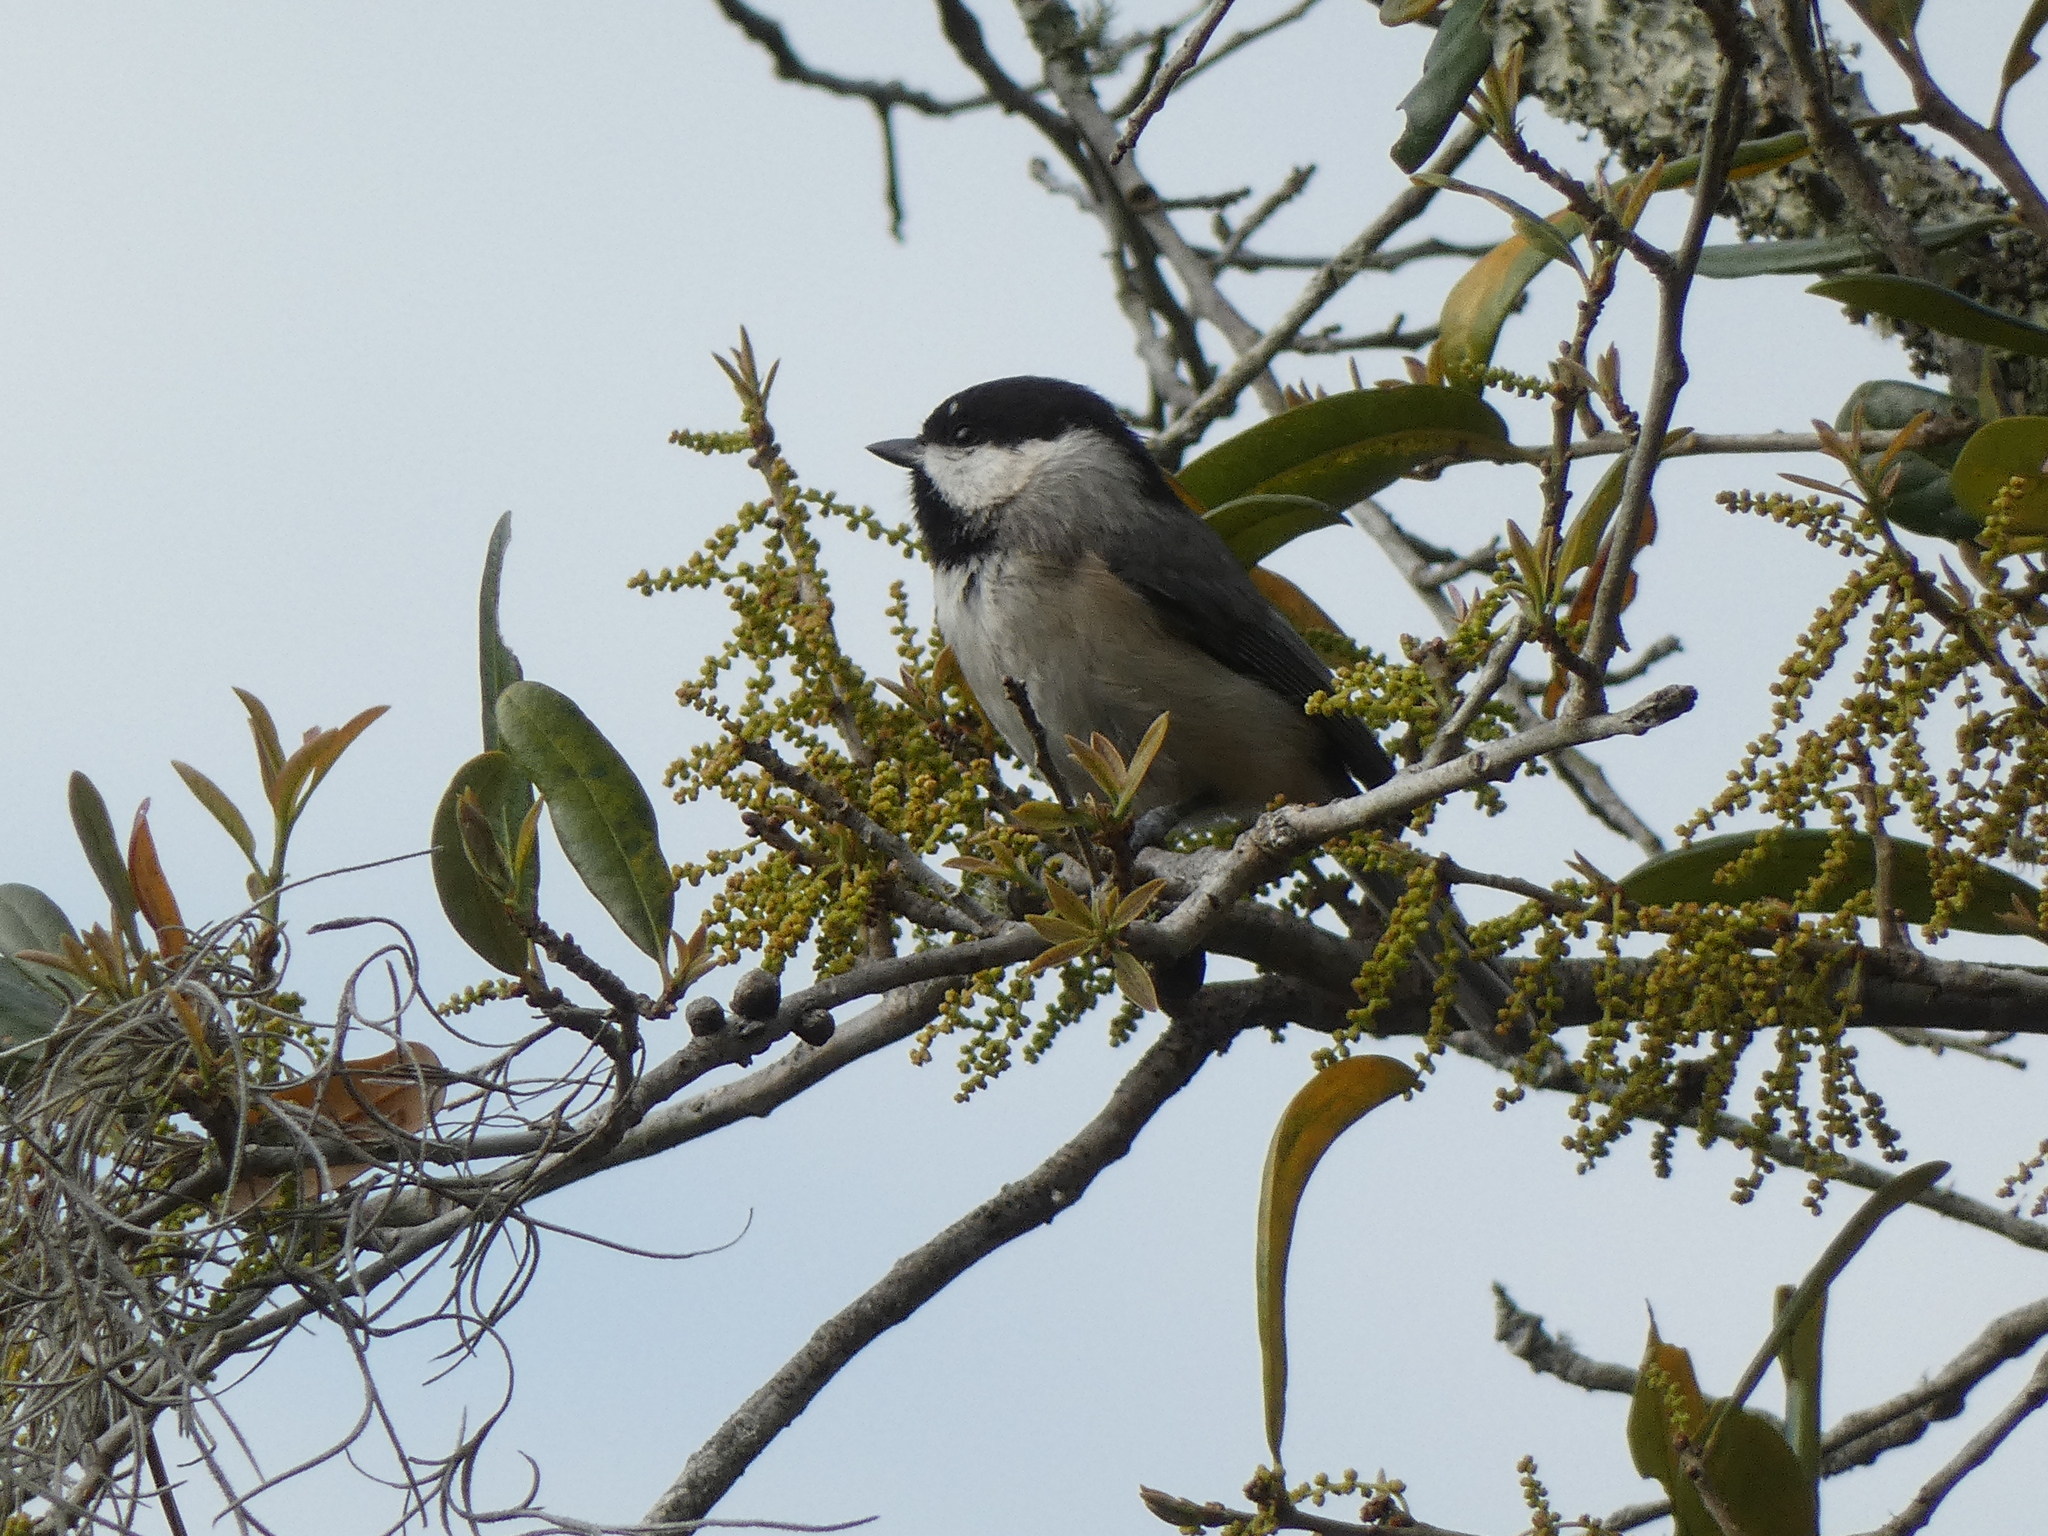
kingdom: Animalia
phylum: Chordata
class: Aves
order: Passeriformes
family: Paridae
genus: Poecile
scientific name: Poecile carolinensis
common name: Carolina chickadee
